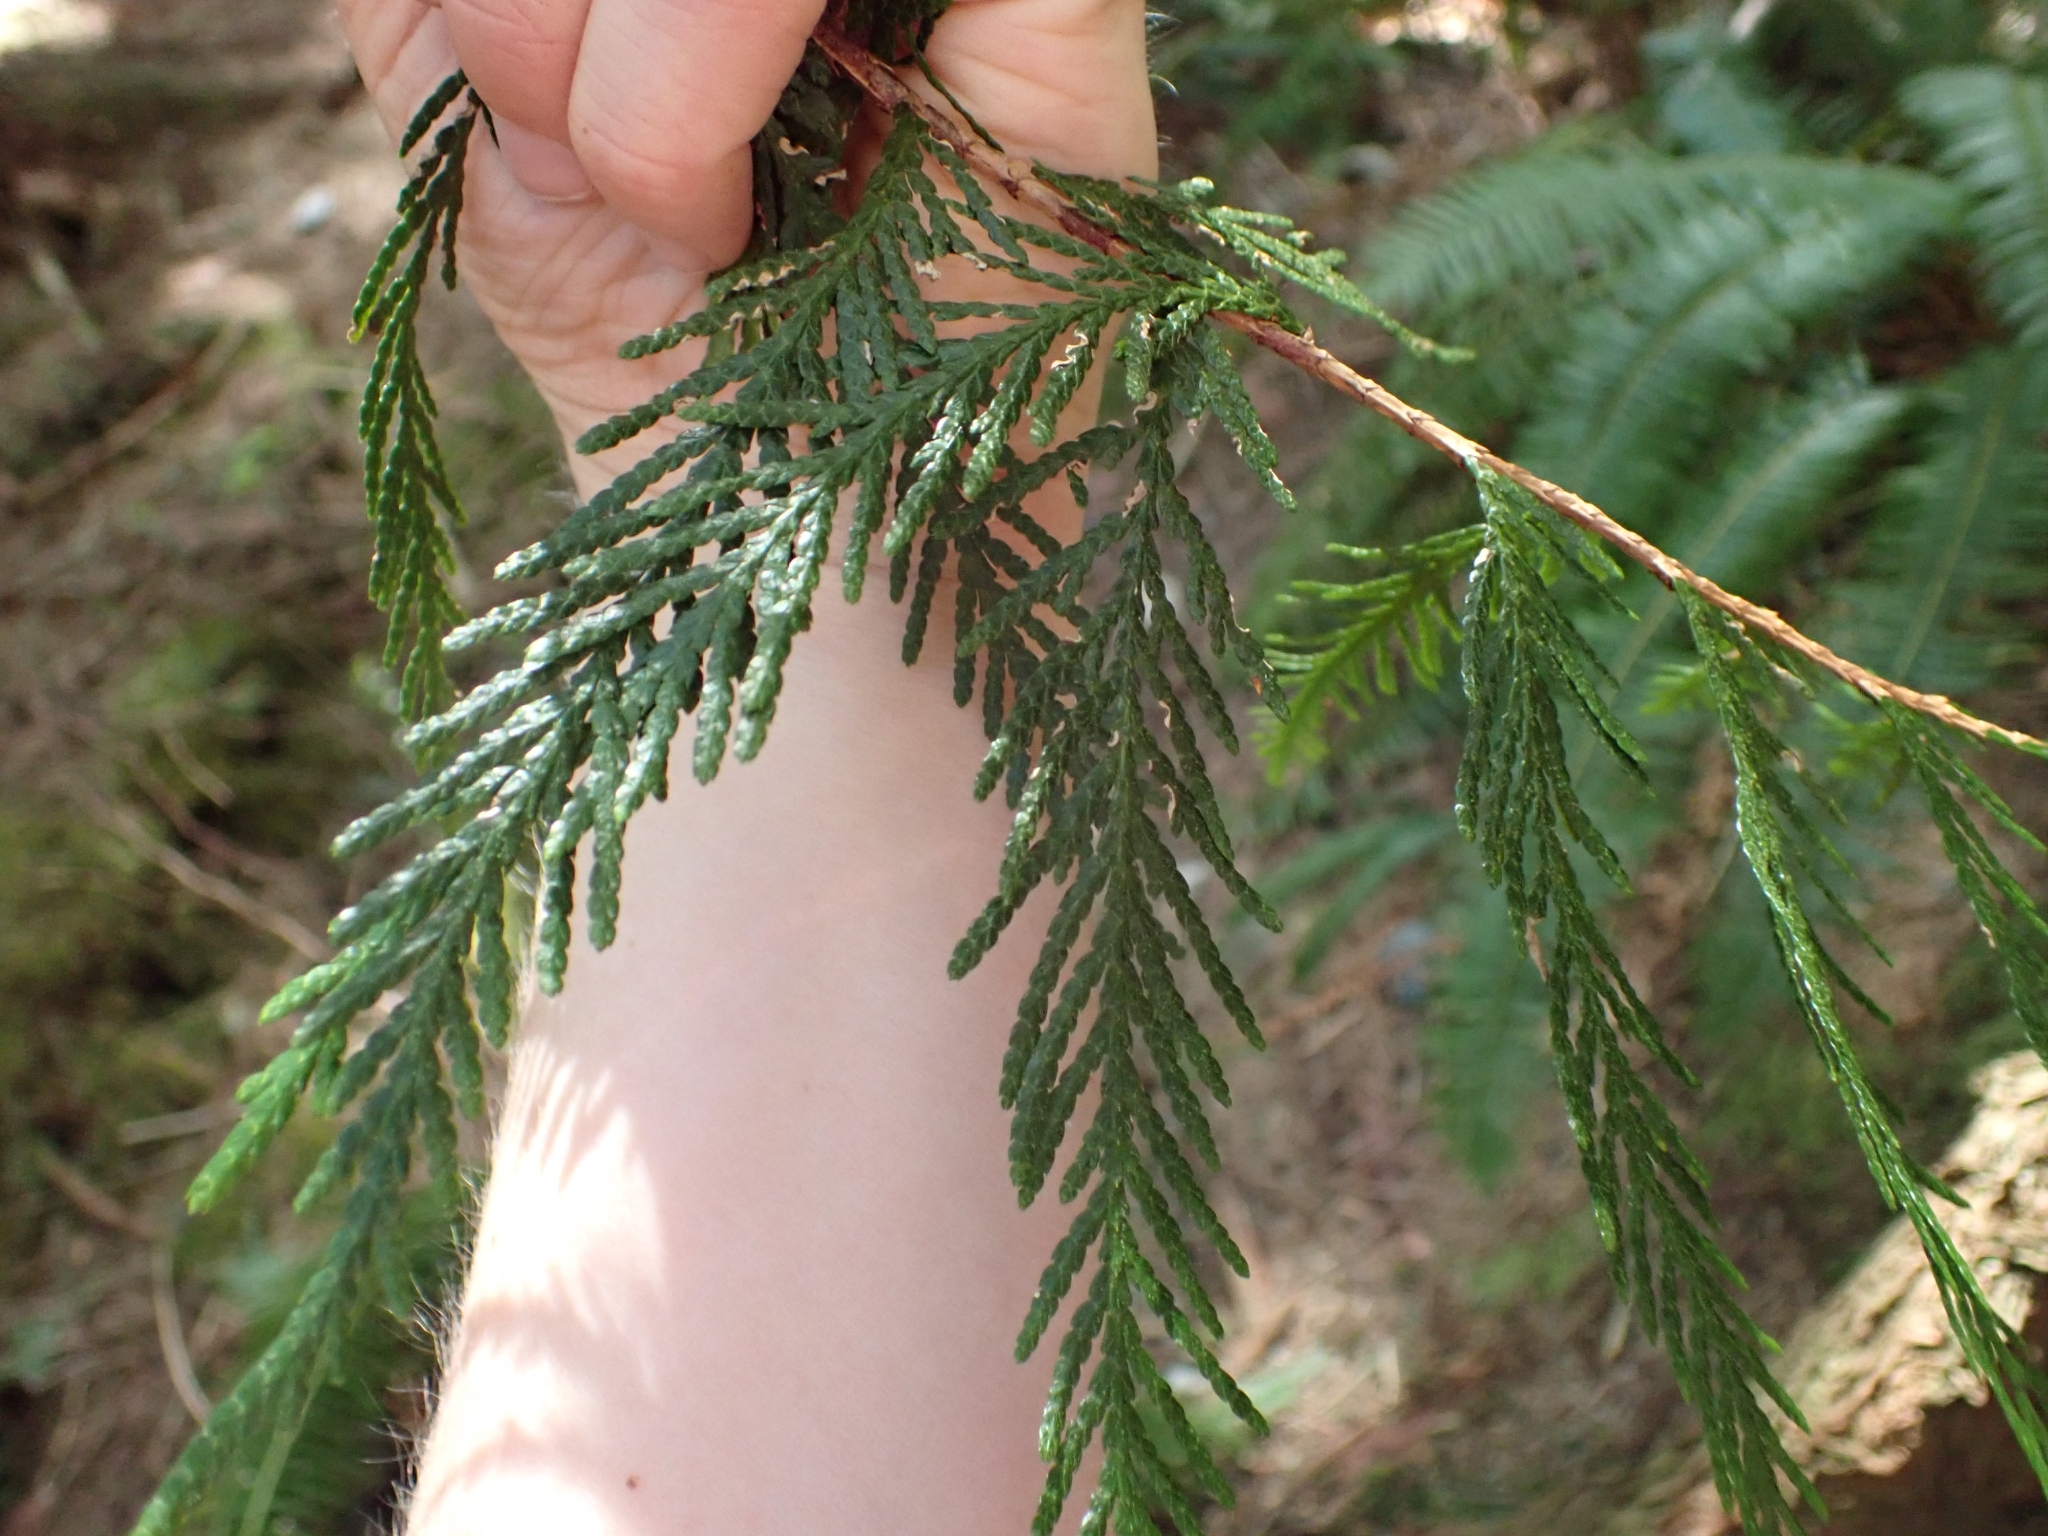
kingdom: Plantae
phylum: Tracheophyta
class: Pinopsida
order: Pinales
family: Cupressaceae
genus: Thuja
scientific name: Thuja plicata
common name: Western red-cedar
